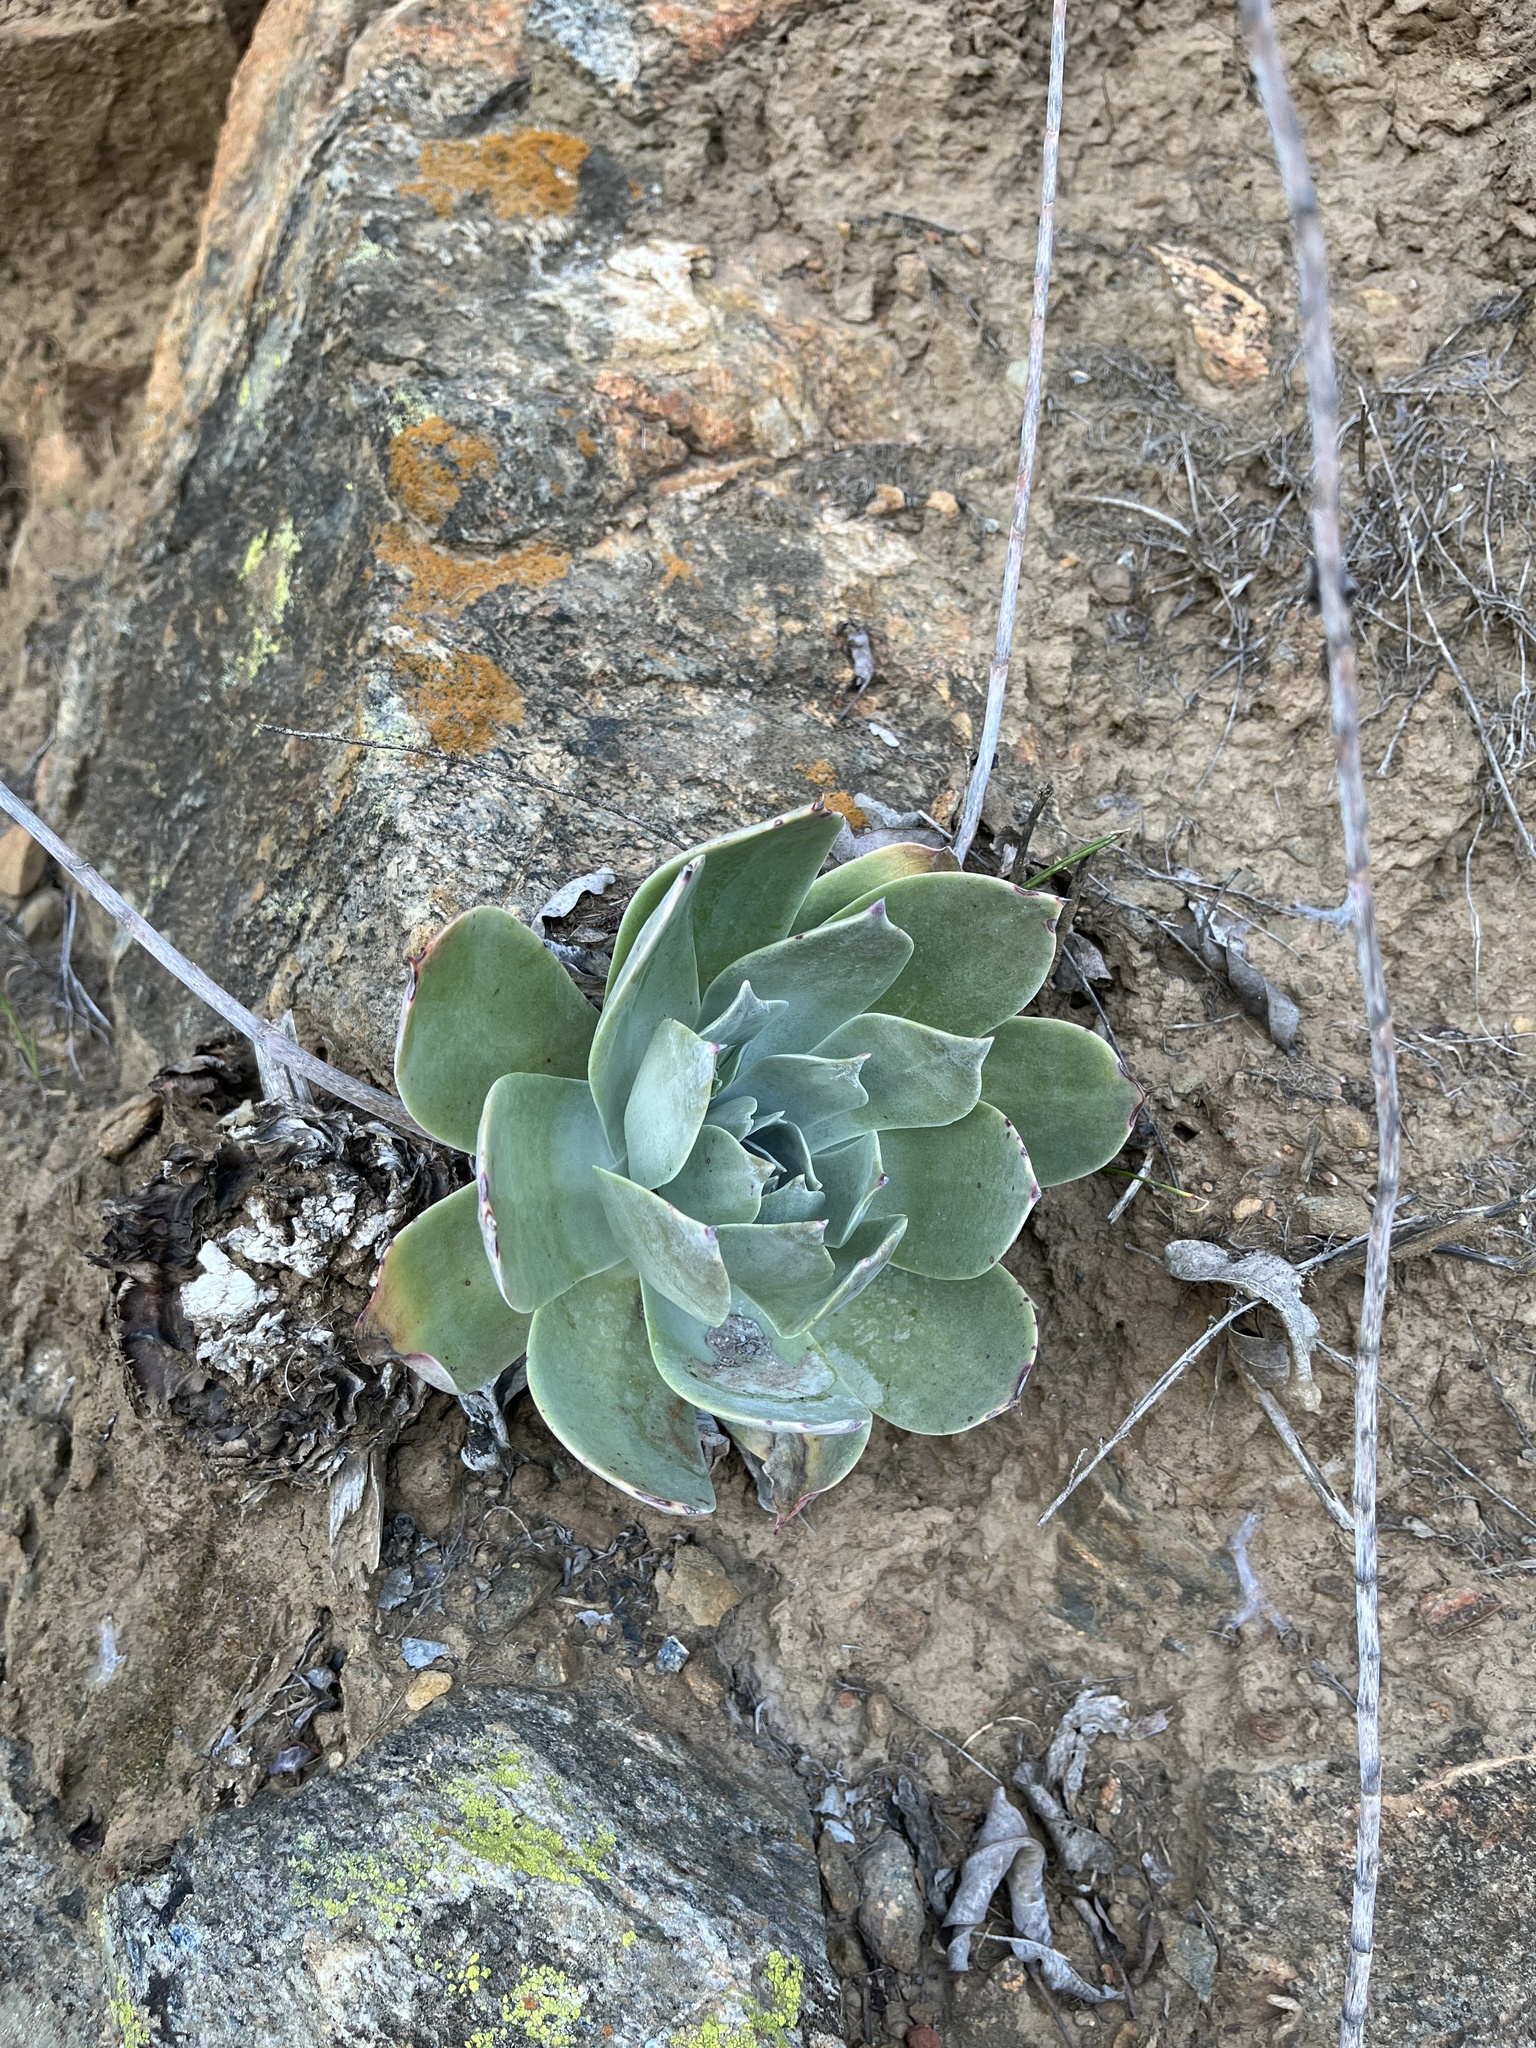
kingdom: Plantae
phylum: Tracheophyta
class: Magnoliopsida
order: Saxifragales
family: Crassulaceae
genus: Dudleya
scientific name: Dudleya pulverulenta
